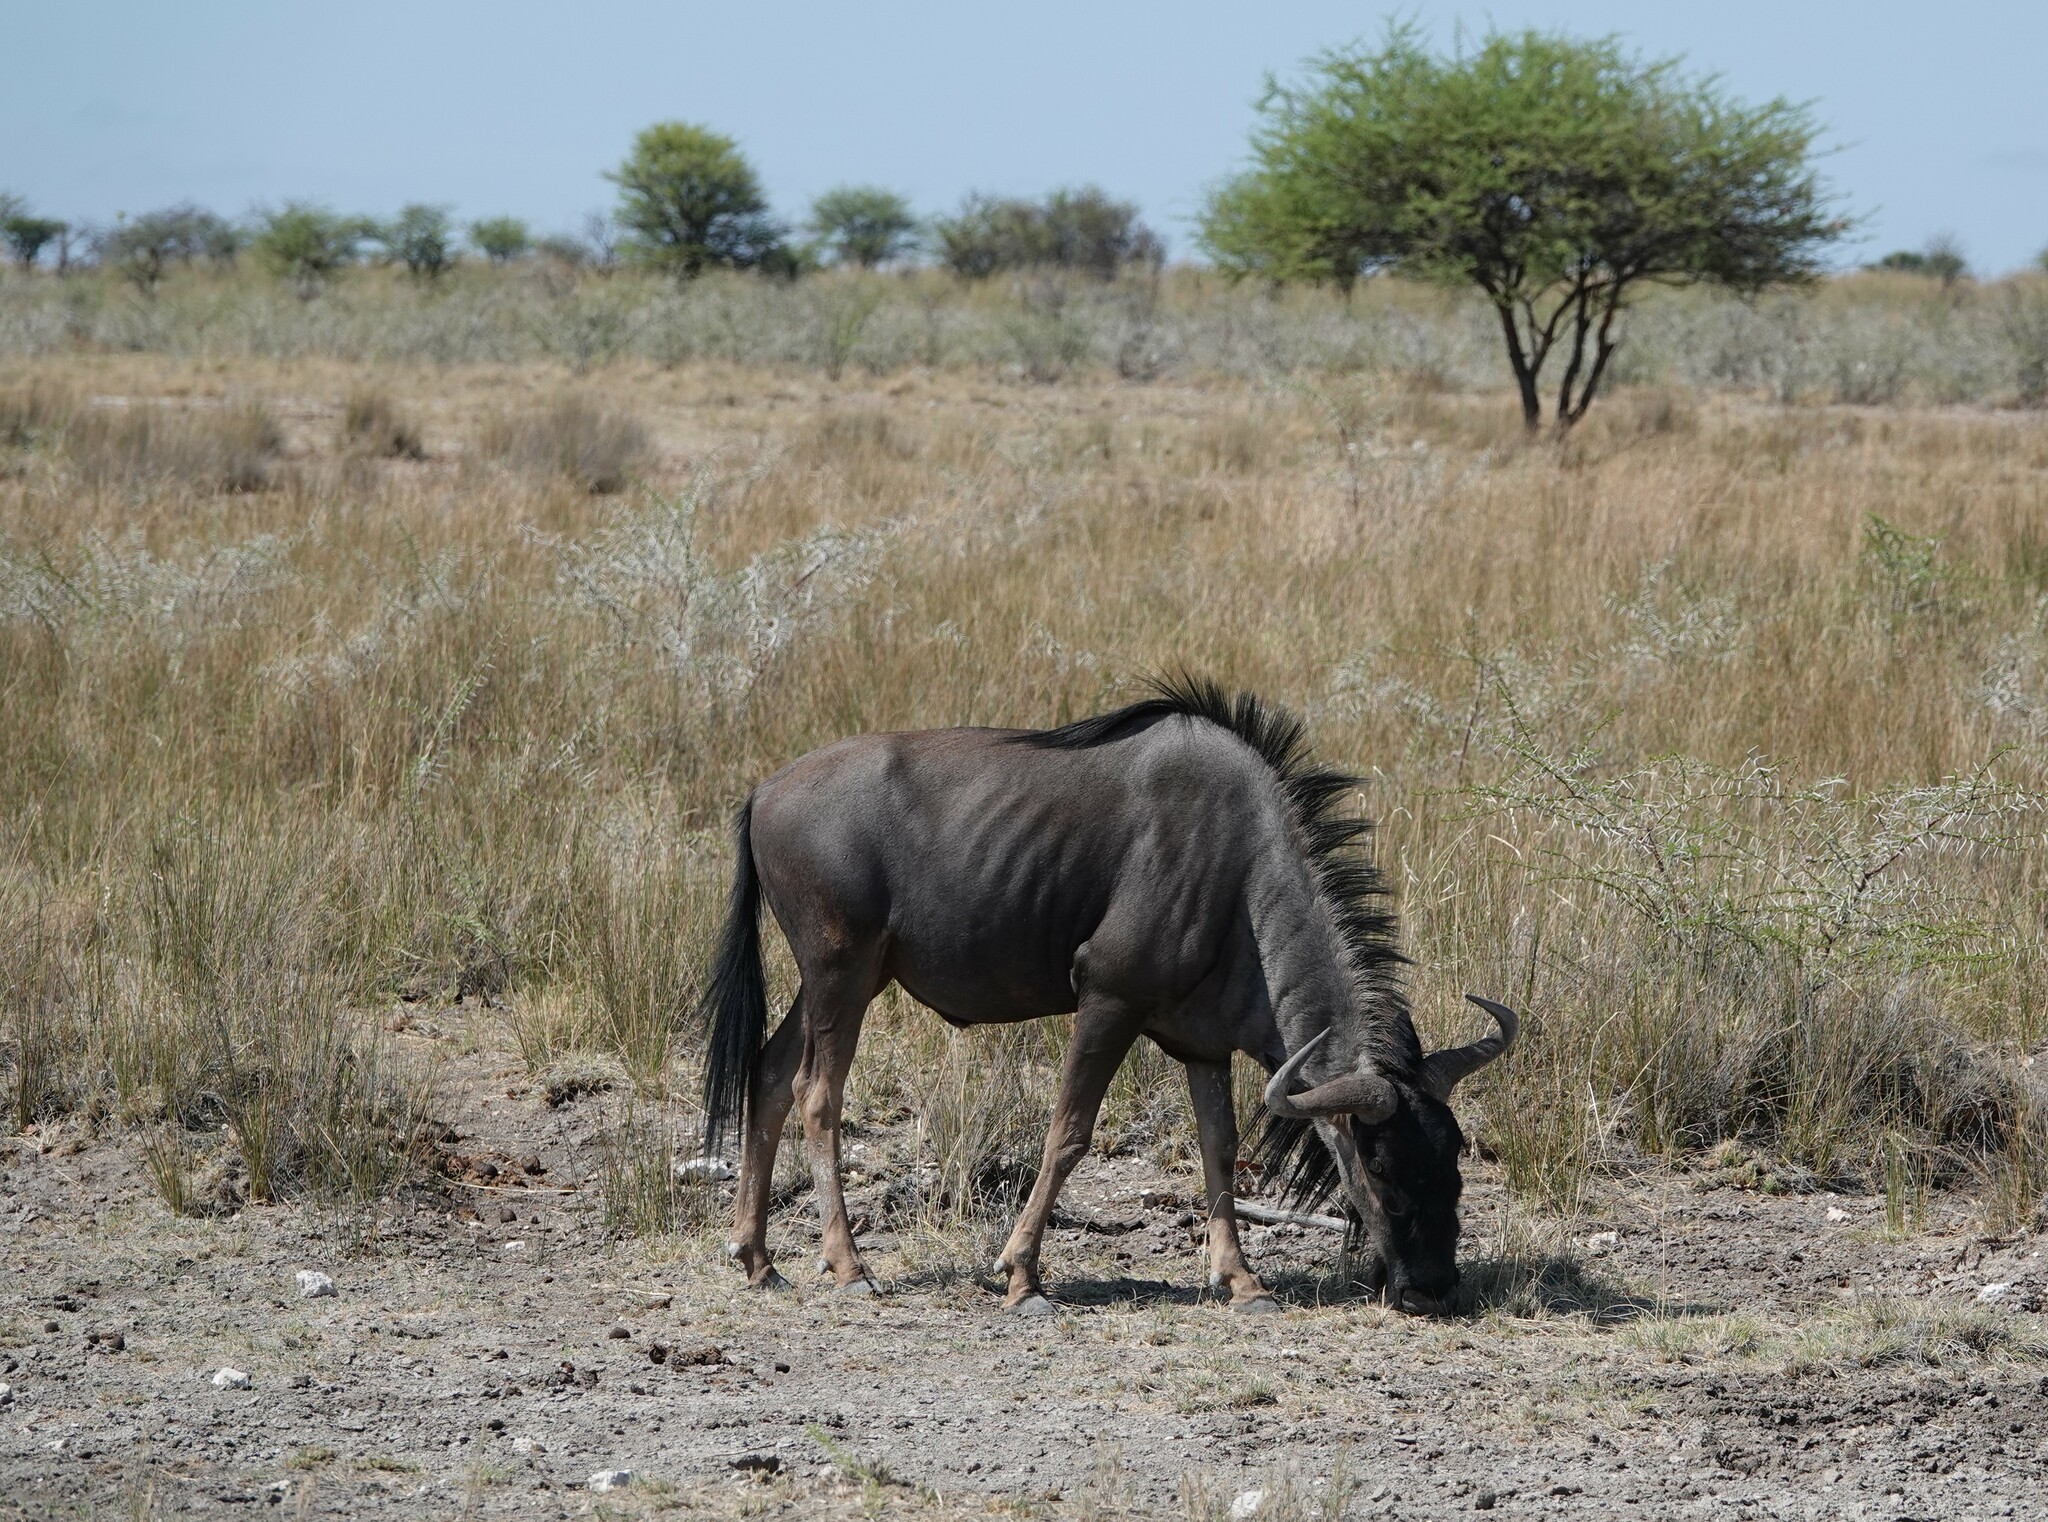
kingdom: Animalia
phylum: Chordata
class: Mammalia
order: Artiodactyla
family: Bovidae
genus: Connochaetes
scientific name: Connochaetes taurinus
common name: Blue wildebeest
